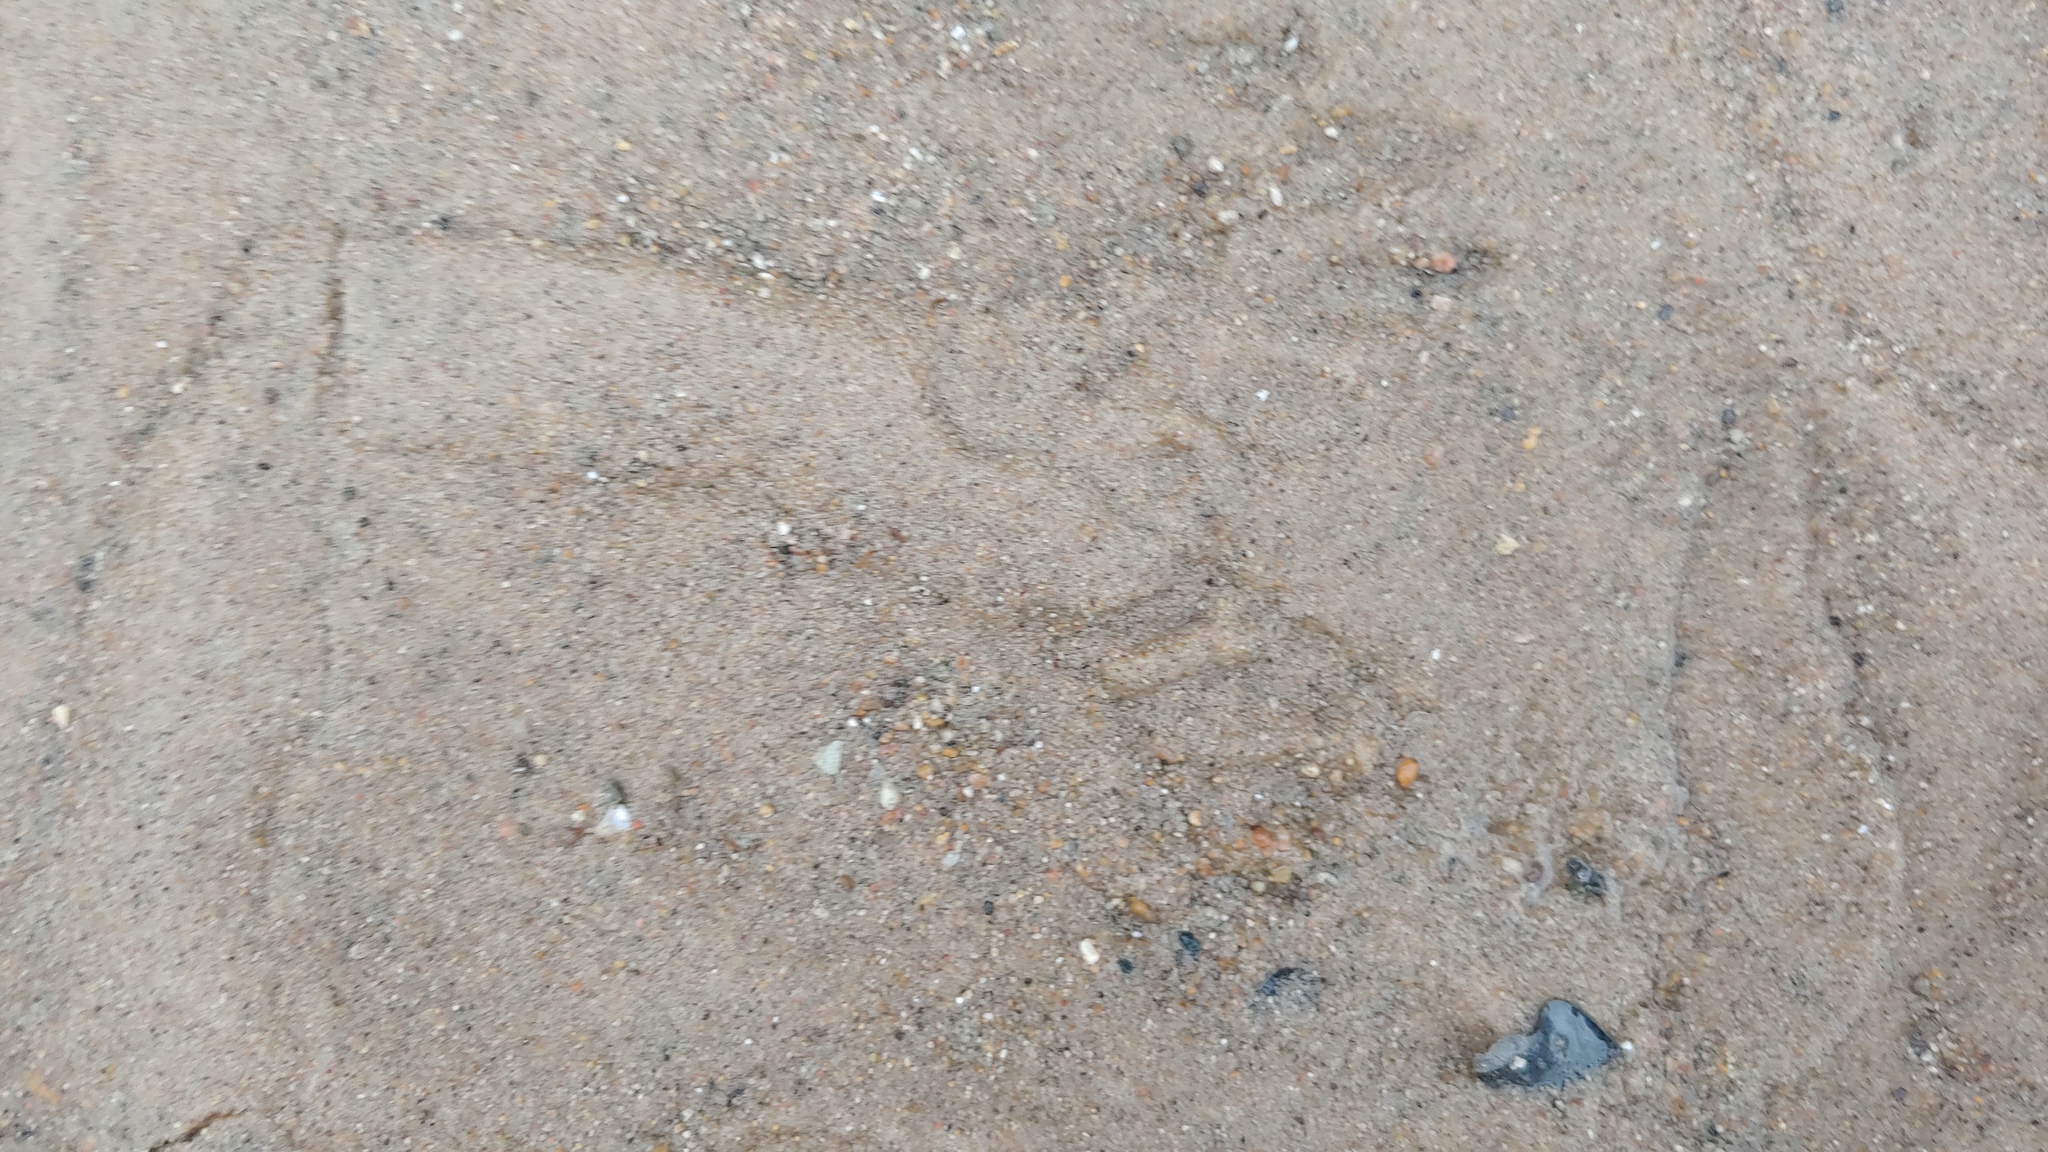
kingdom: Animalia
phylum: Chordata
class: Mammalia
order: Carnivora
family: Procyonidae
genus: Procyon
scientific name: Procyon lotor
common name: Raccoon
